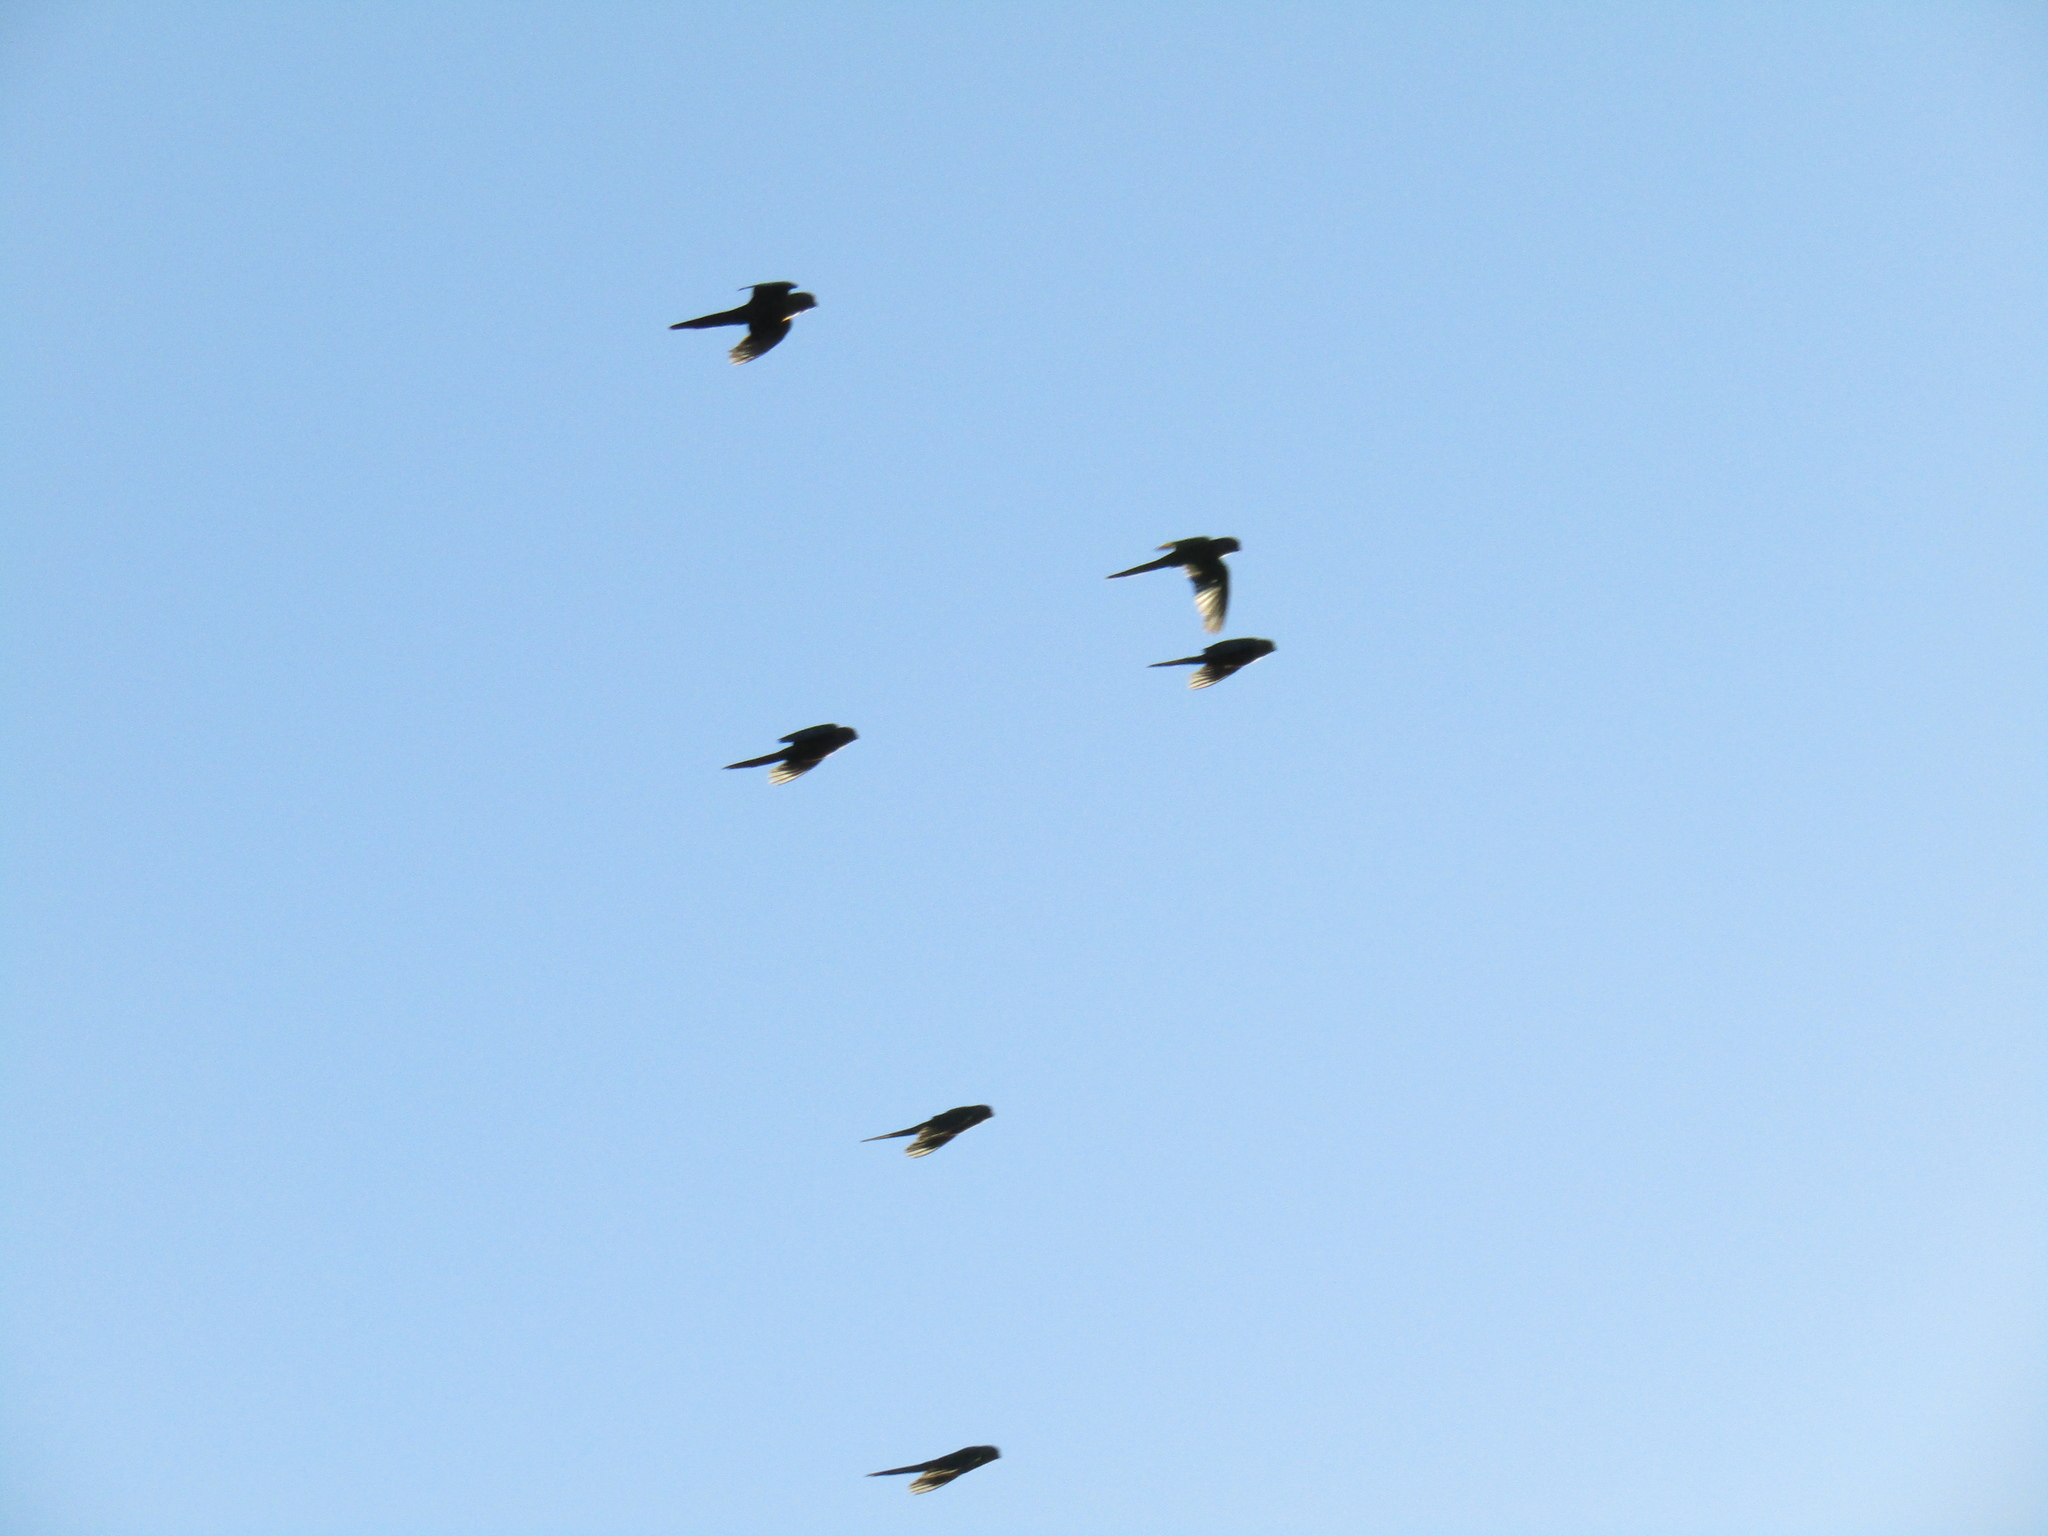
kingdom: Animalia
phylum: Chordata
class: Aves
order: Psittaciformes
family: Psittacidae
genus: Pyrrhura
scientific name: Pyrrhura frontalis
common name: Maroon-bellied parakeet
